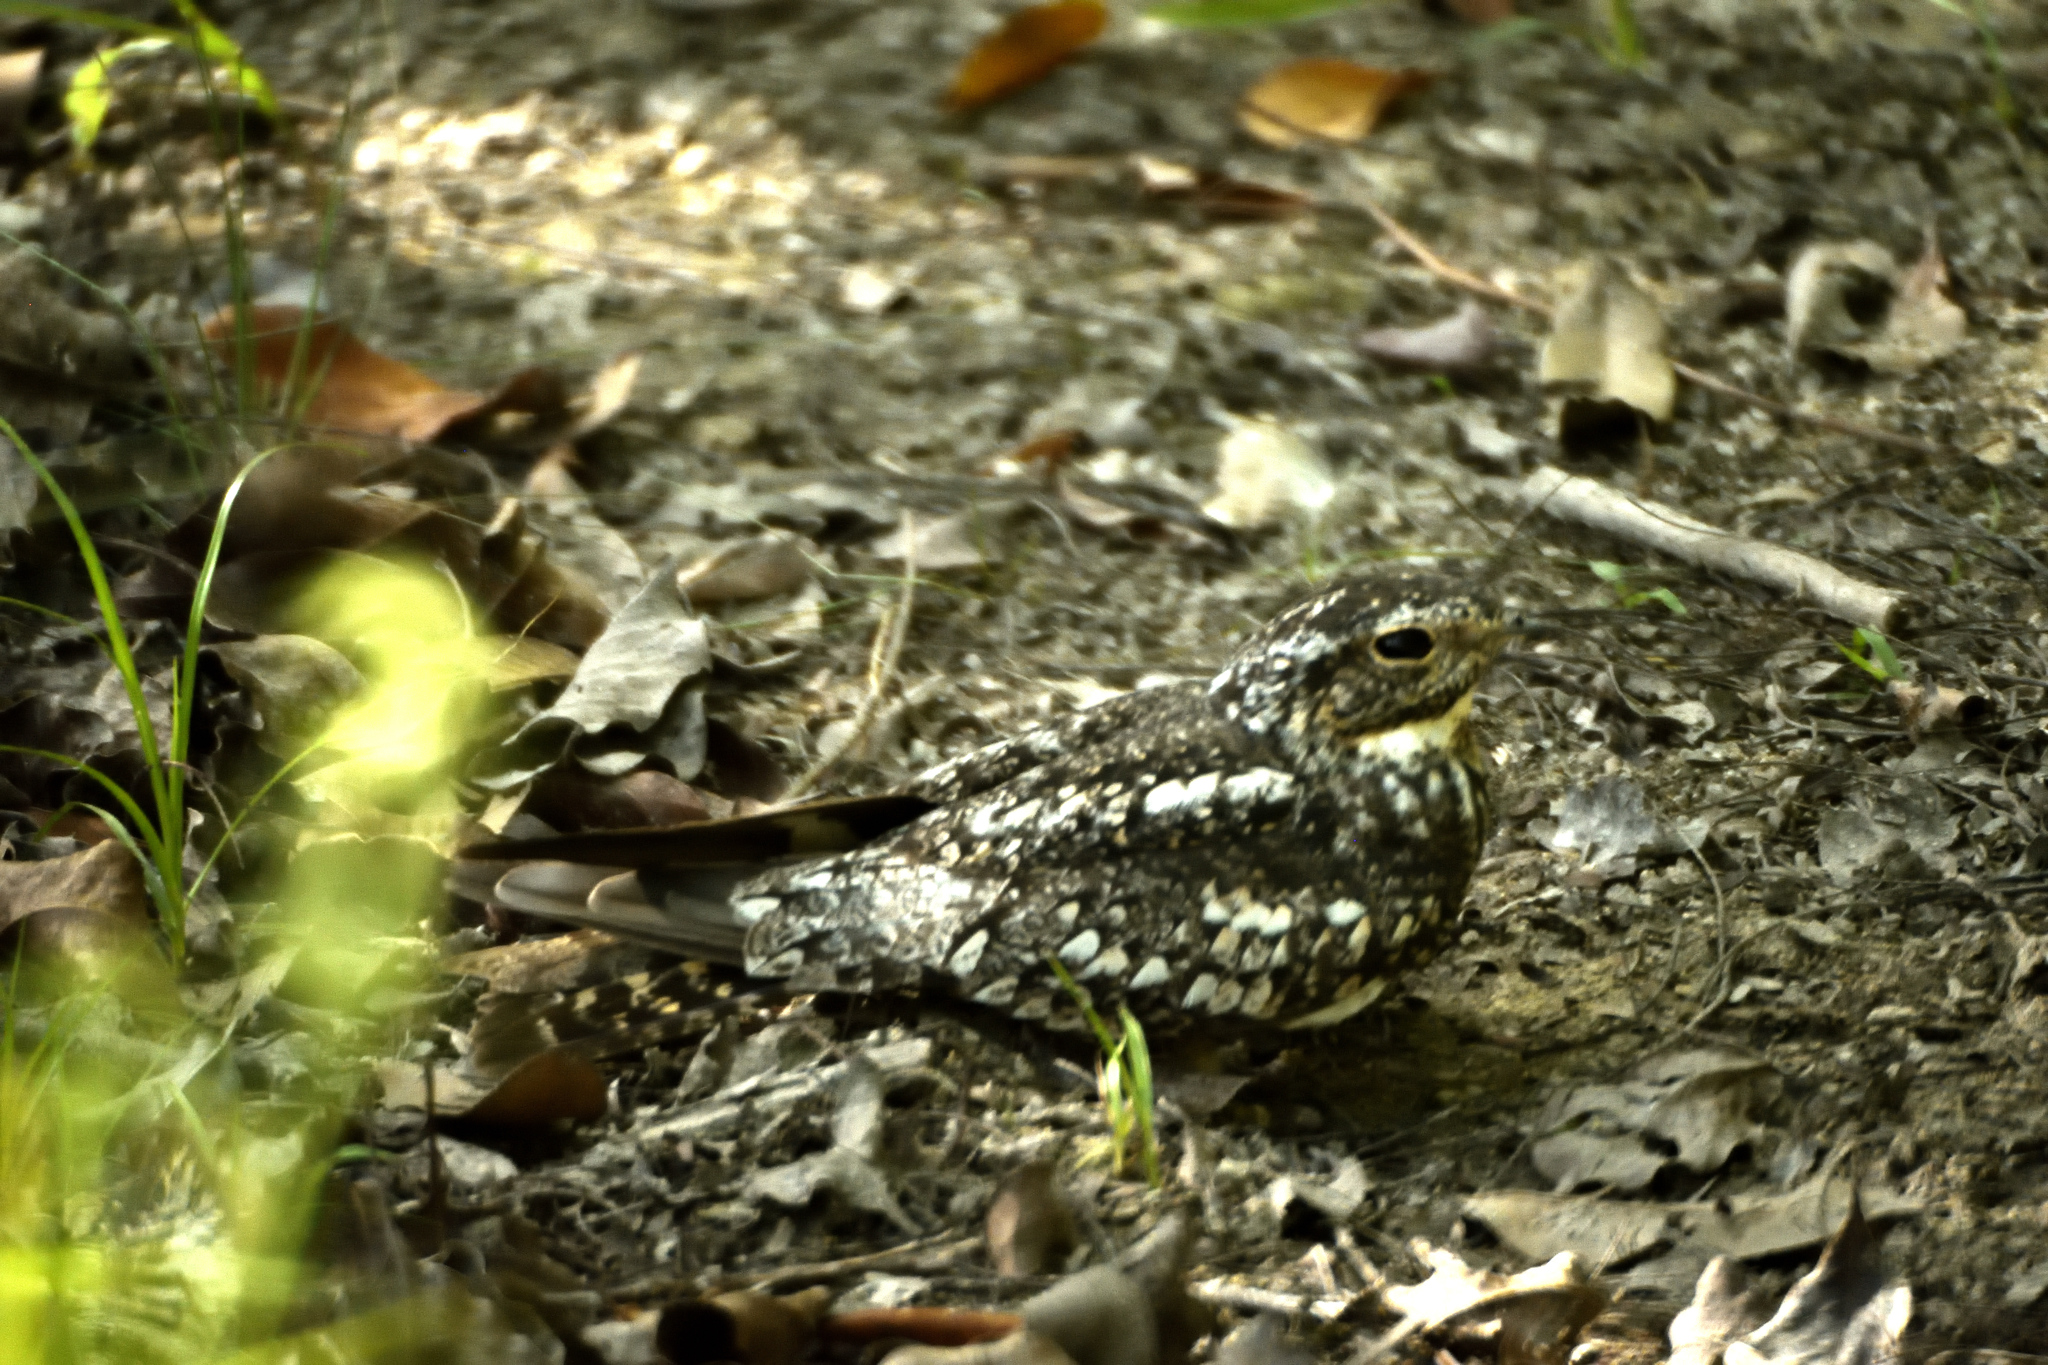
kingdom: Animalia
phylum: Chordata
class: Aves
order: Caprimulgiformes
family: Caprimulgidae
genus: Chordeiles
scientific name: Chordeiles acutipennis
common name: Lesser nighthawk
